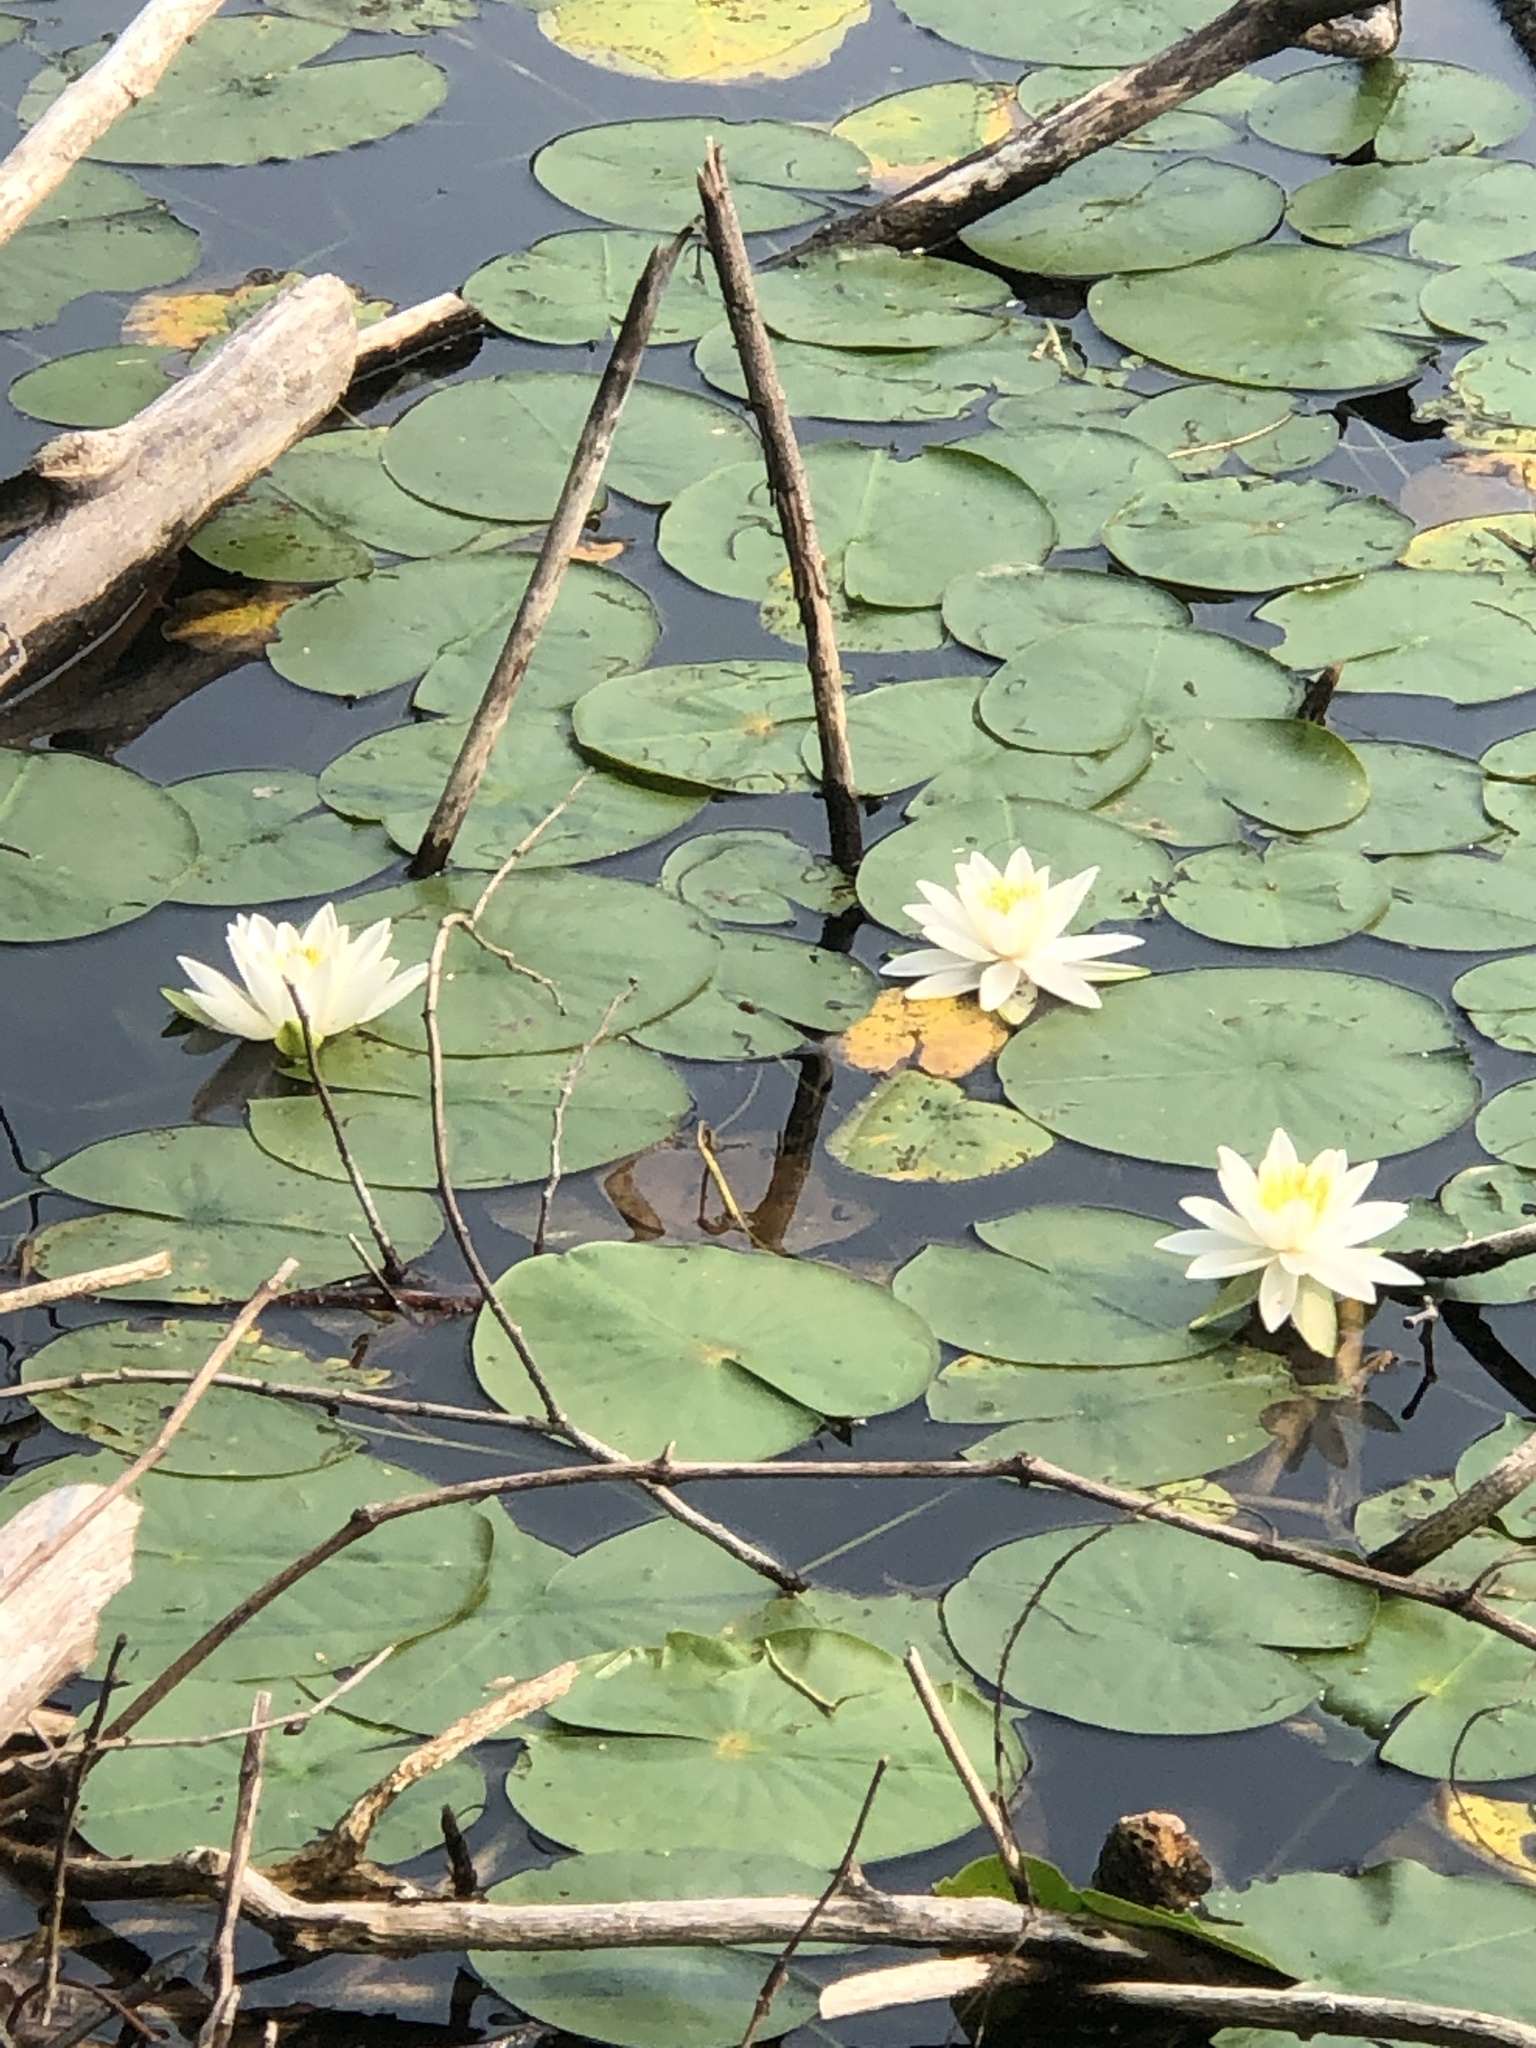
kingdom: Plantae
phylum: Tracheophyta
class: Magnoliopsida
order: Nymphaeales
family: Nymphaeaceae
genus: Nymphaea
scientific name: Nymphaea odorata
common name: Fragrant water-lily
